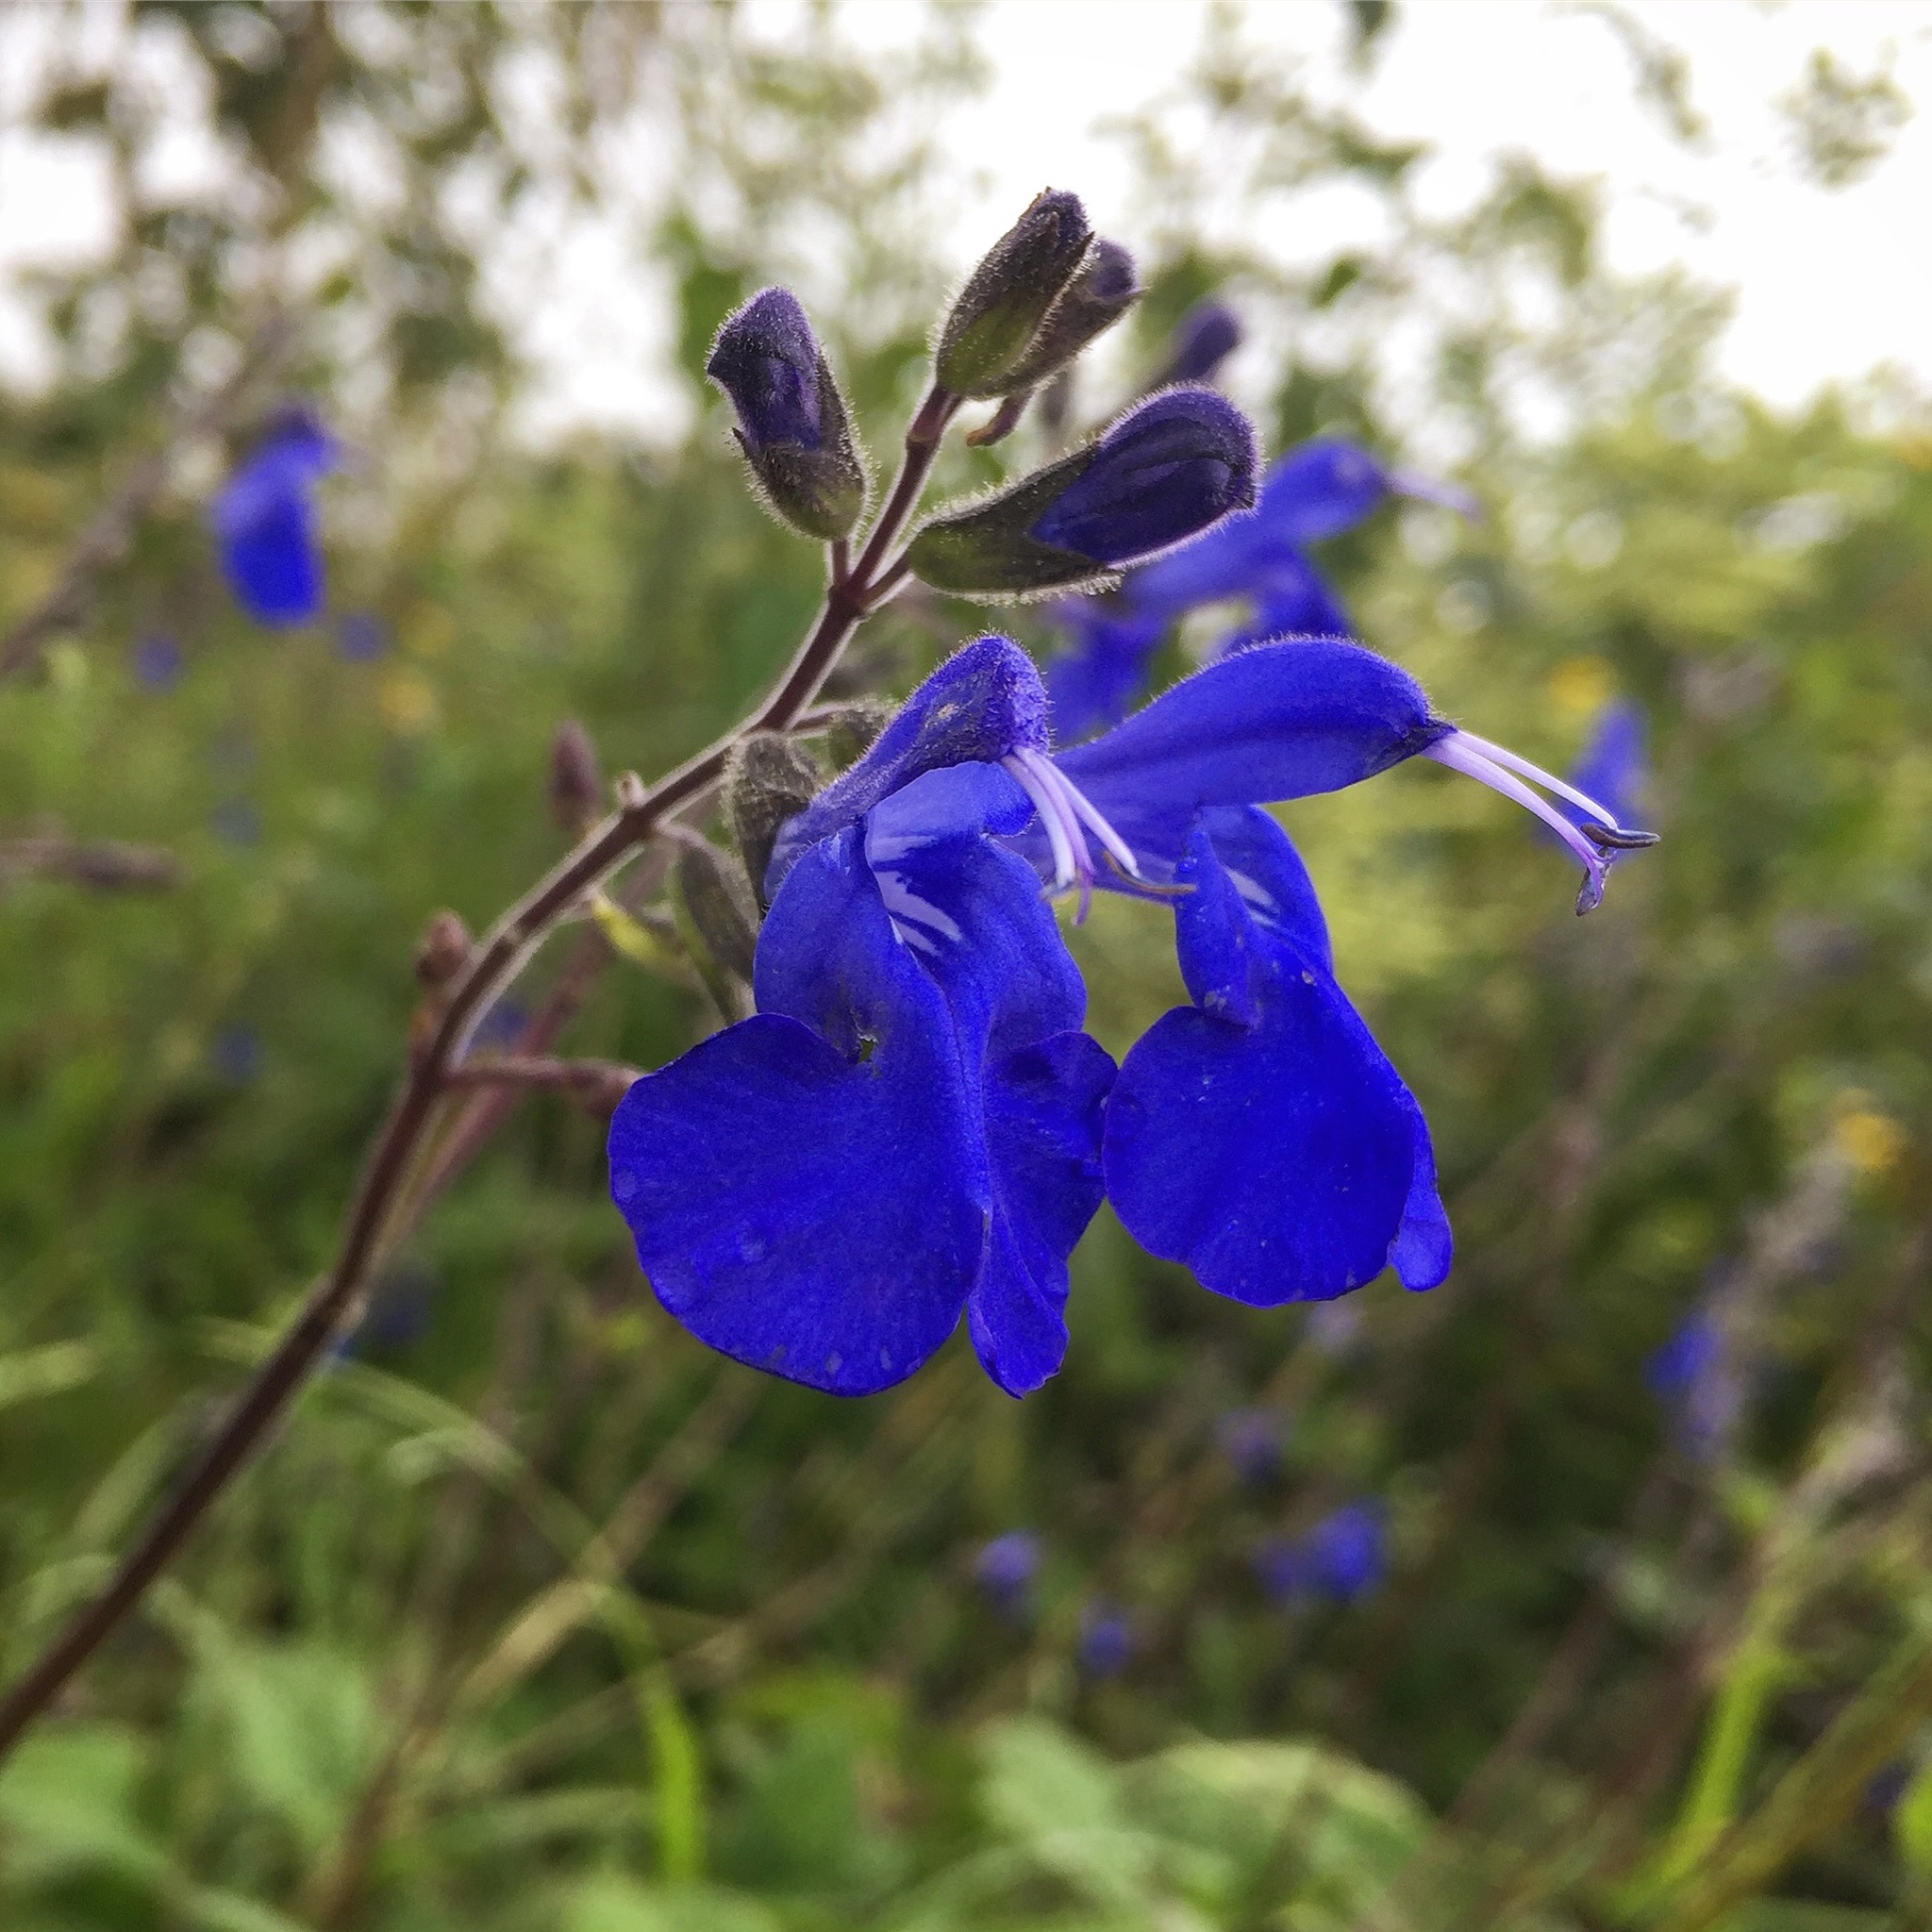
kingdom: Plantae
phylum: Tracheophyta
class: Magnoliopsida
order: Lamiales
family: Lamiaceae
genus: Salvia
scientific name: Salvia sagittata
